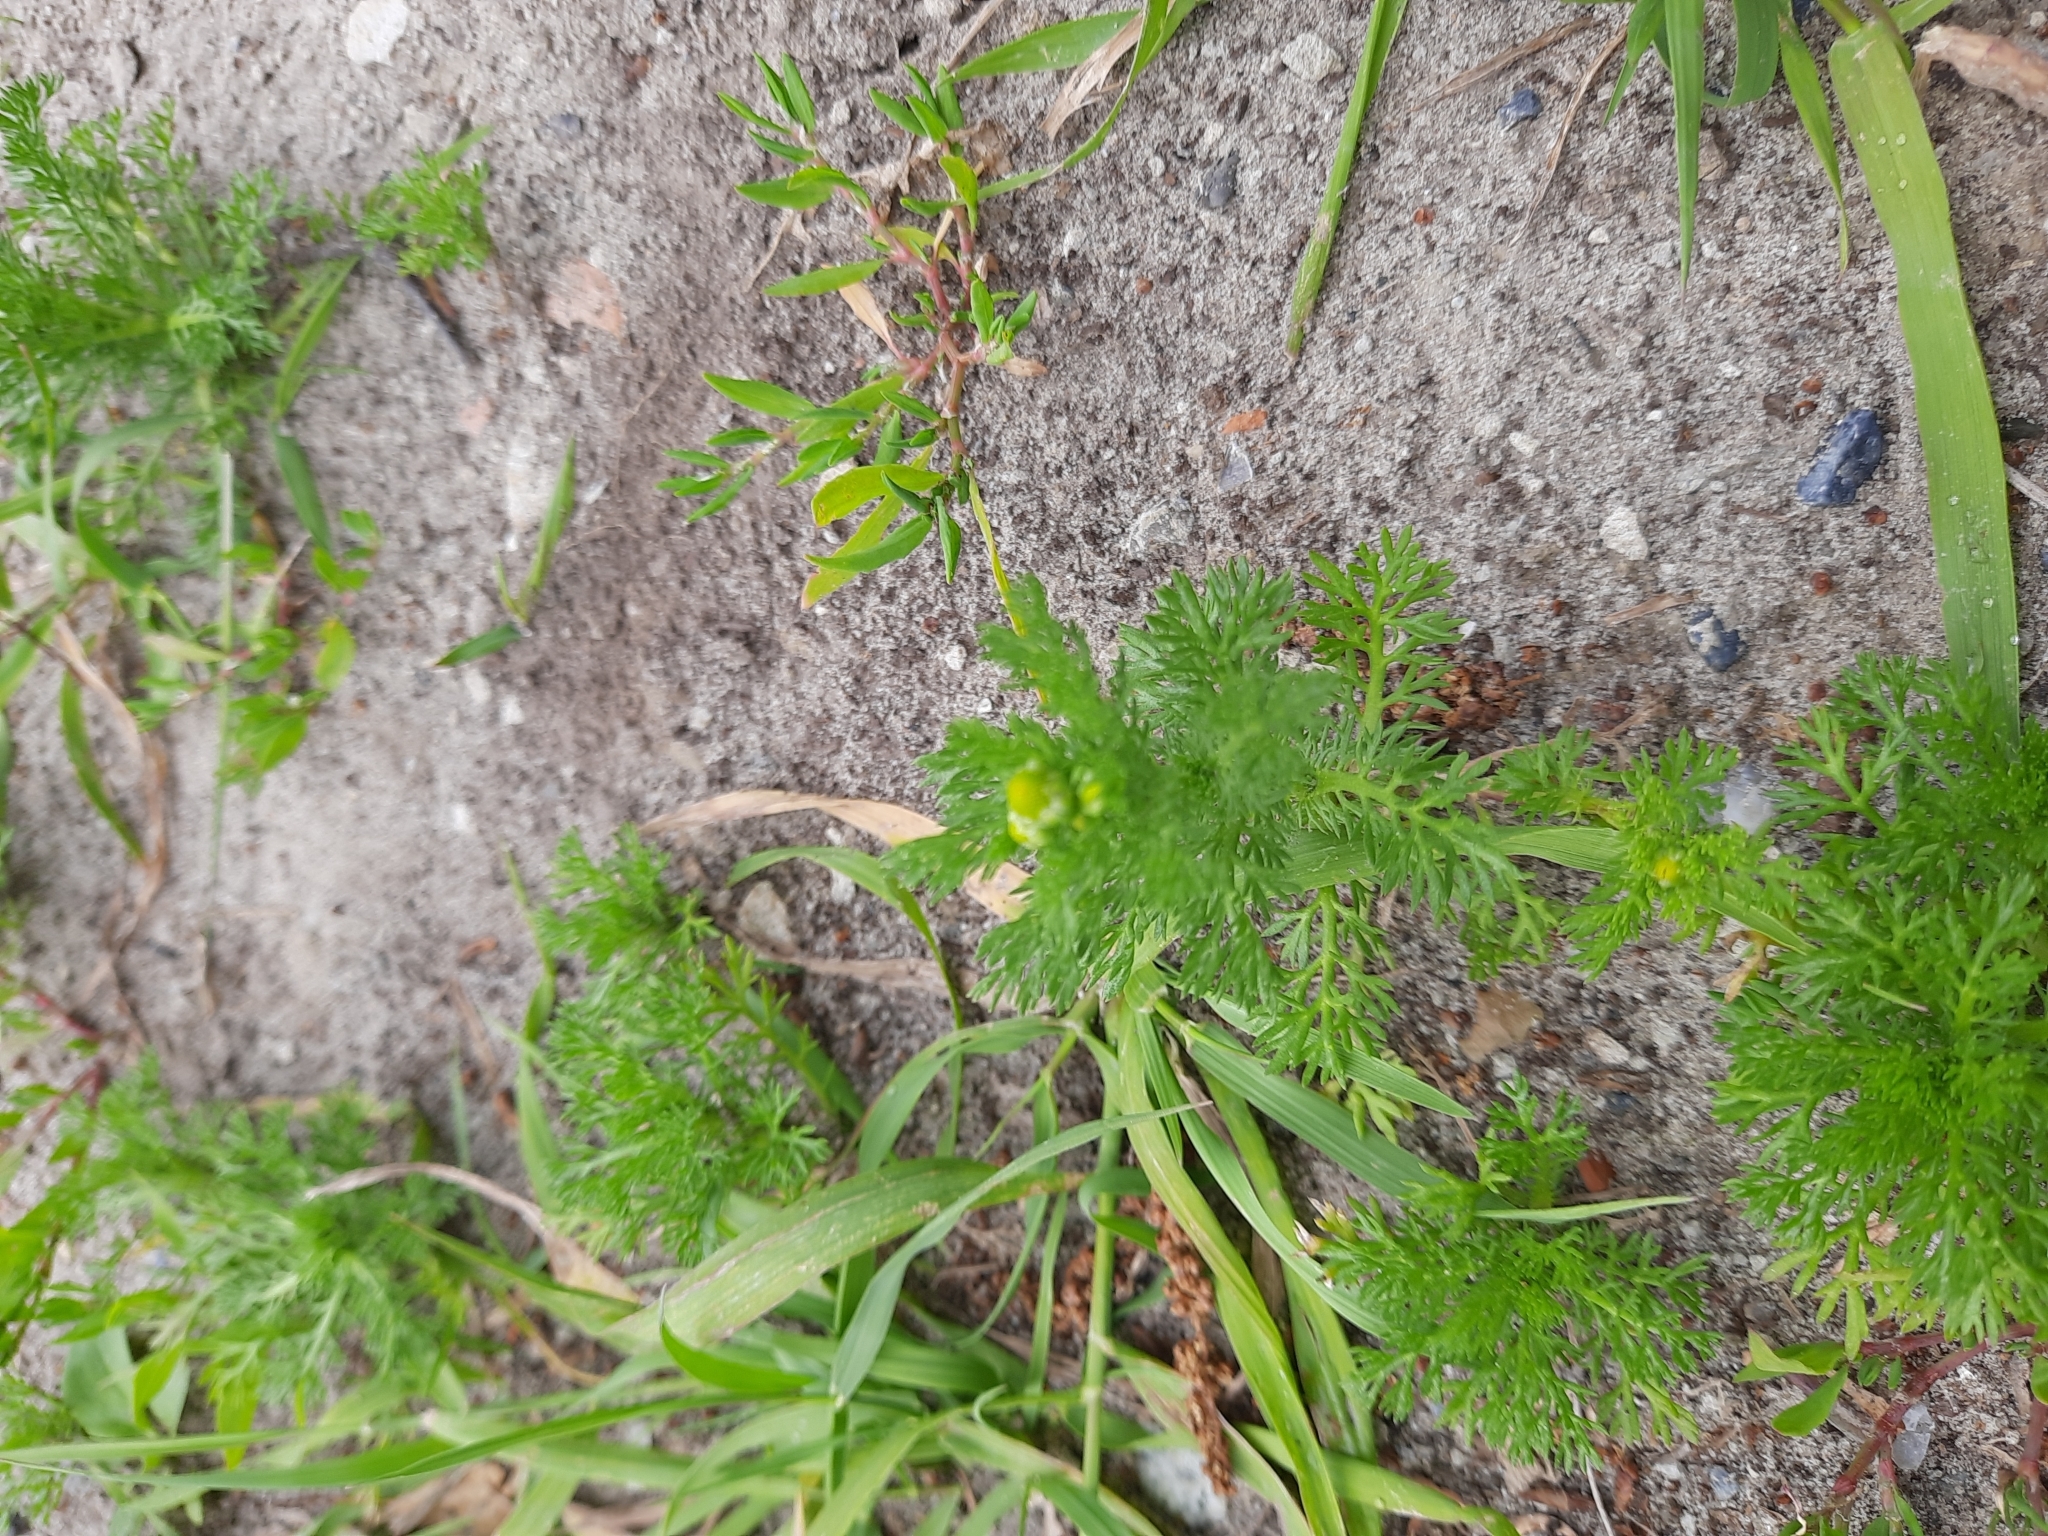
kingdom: Plantae
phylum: Tracheophyta
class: Magnoliopsida
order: Asterales
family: Asteraceae
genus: Matricaria
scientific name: Matricaria discoidea
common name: Disc mayweed
